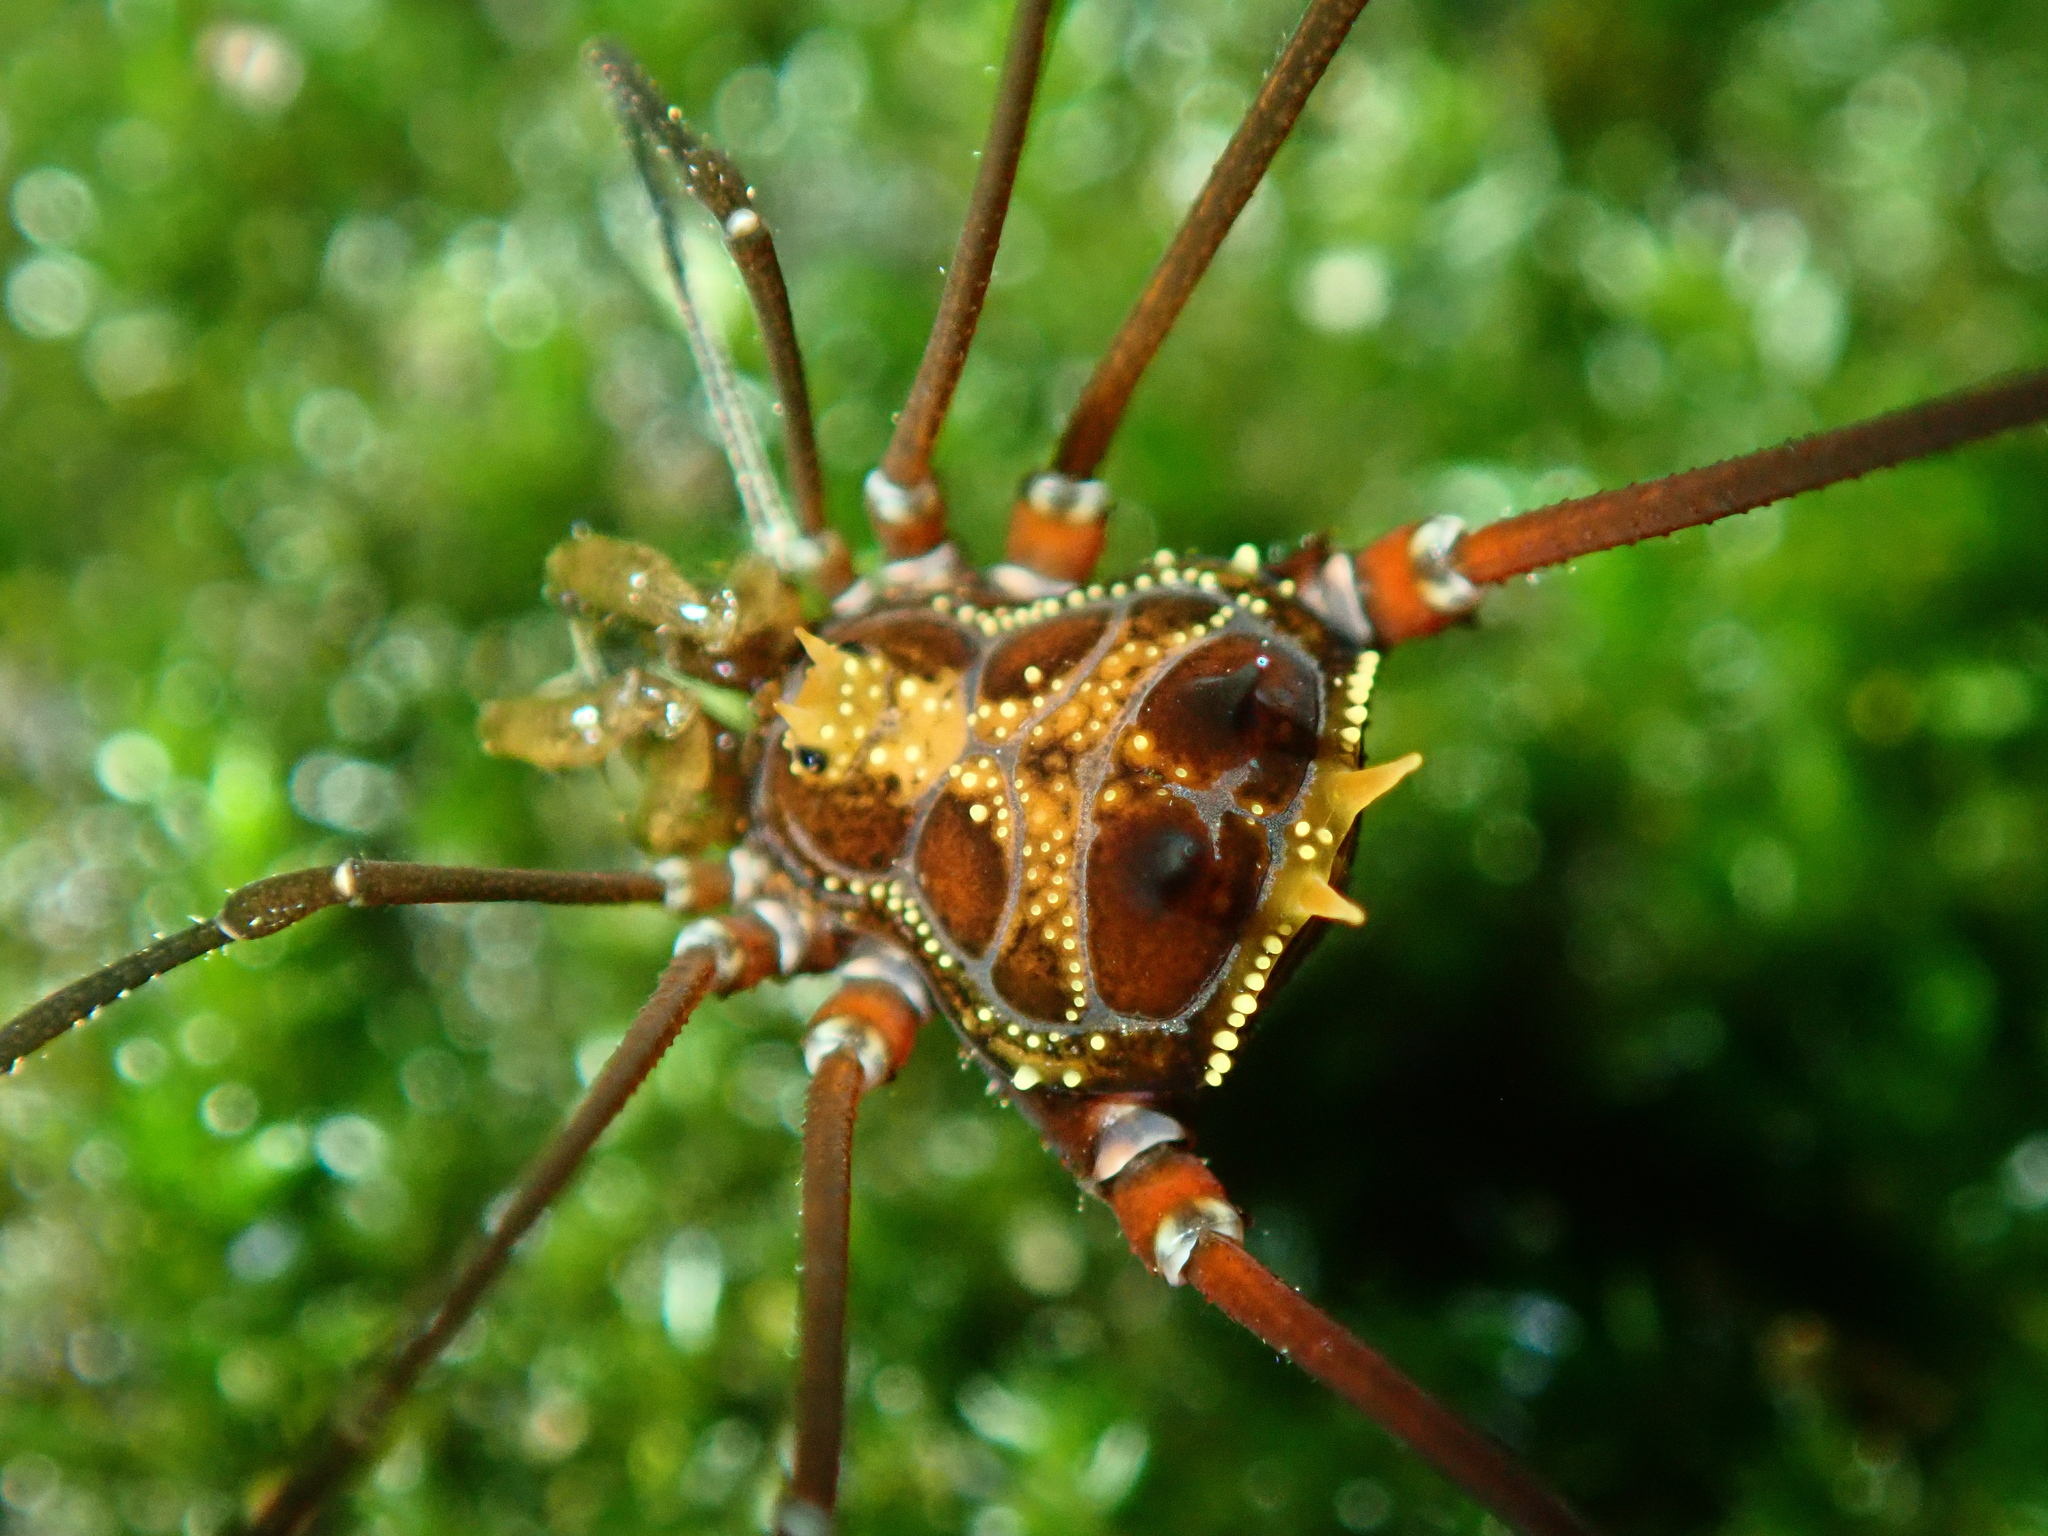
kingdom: Animalia
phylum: Arthropoda
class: Arachnida
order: Opiliones
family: Gonyleptidae
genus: Promitobates
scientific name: Promitobates nigripes
